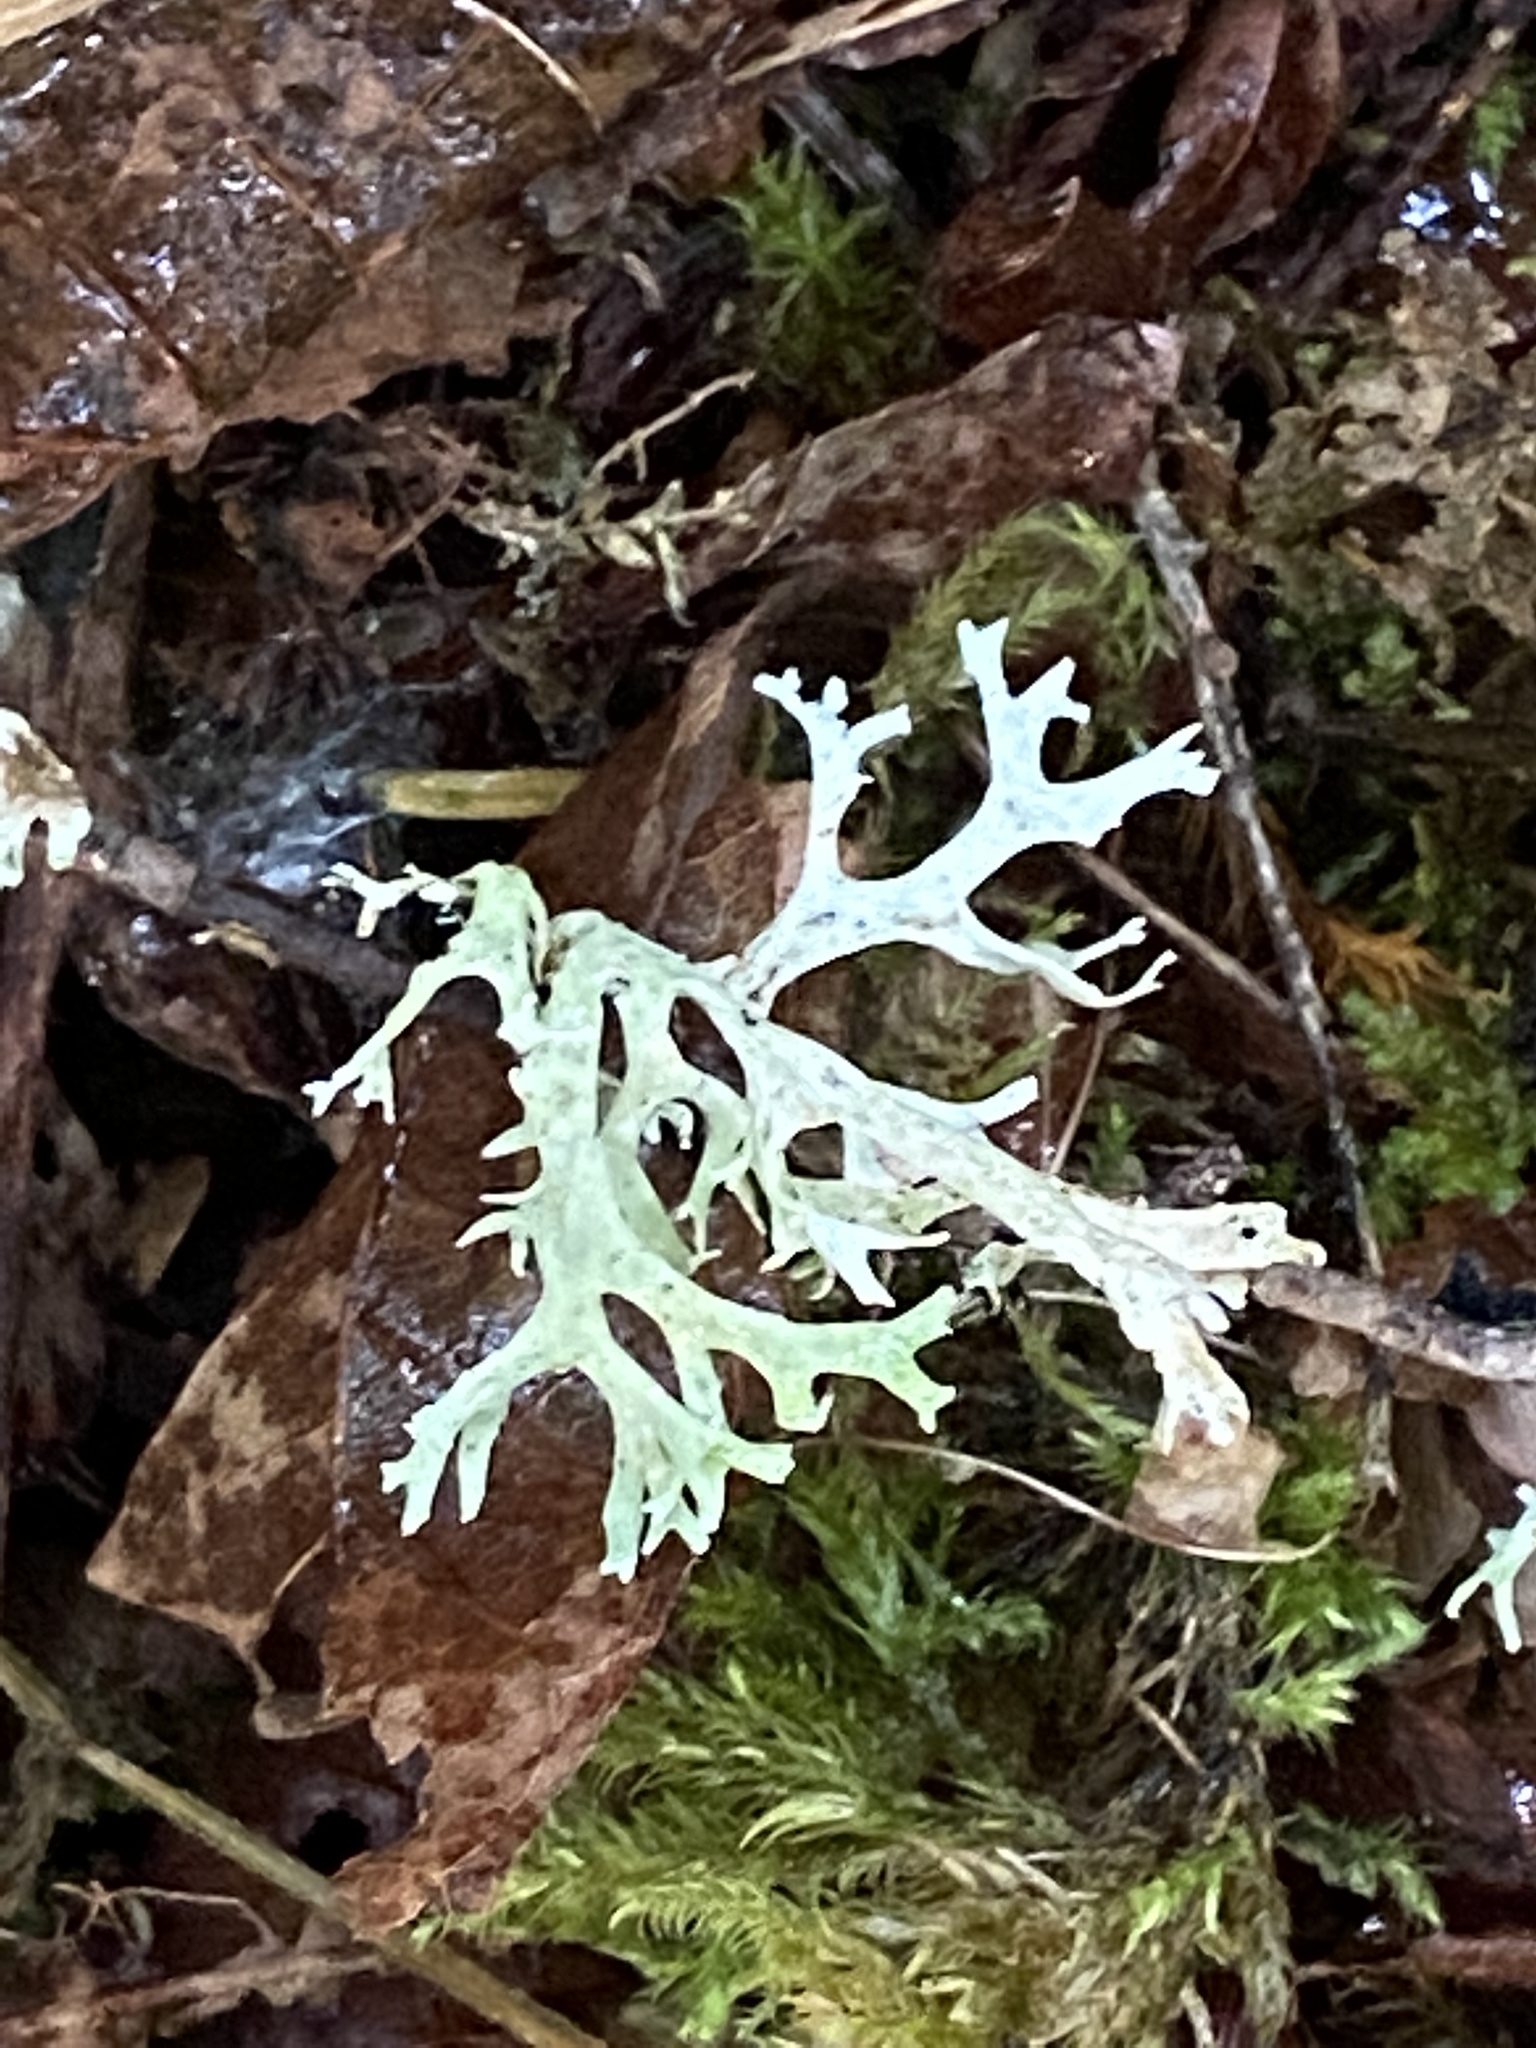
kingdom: Fungi
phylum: Ascomycota
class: Lecanoromycetes
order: Lecanorales
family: Parmeliaceae
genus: Evernia
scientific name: Evernia prunastri
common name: Oak moss
